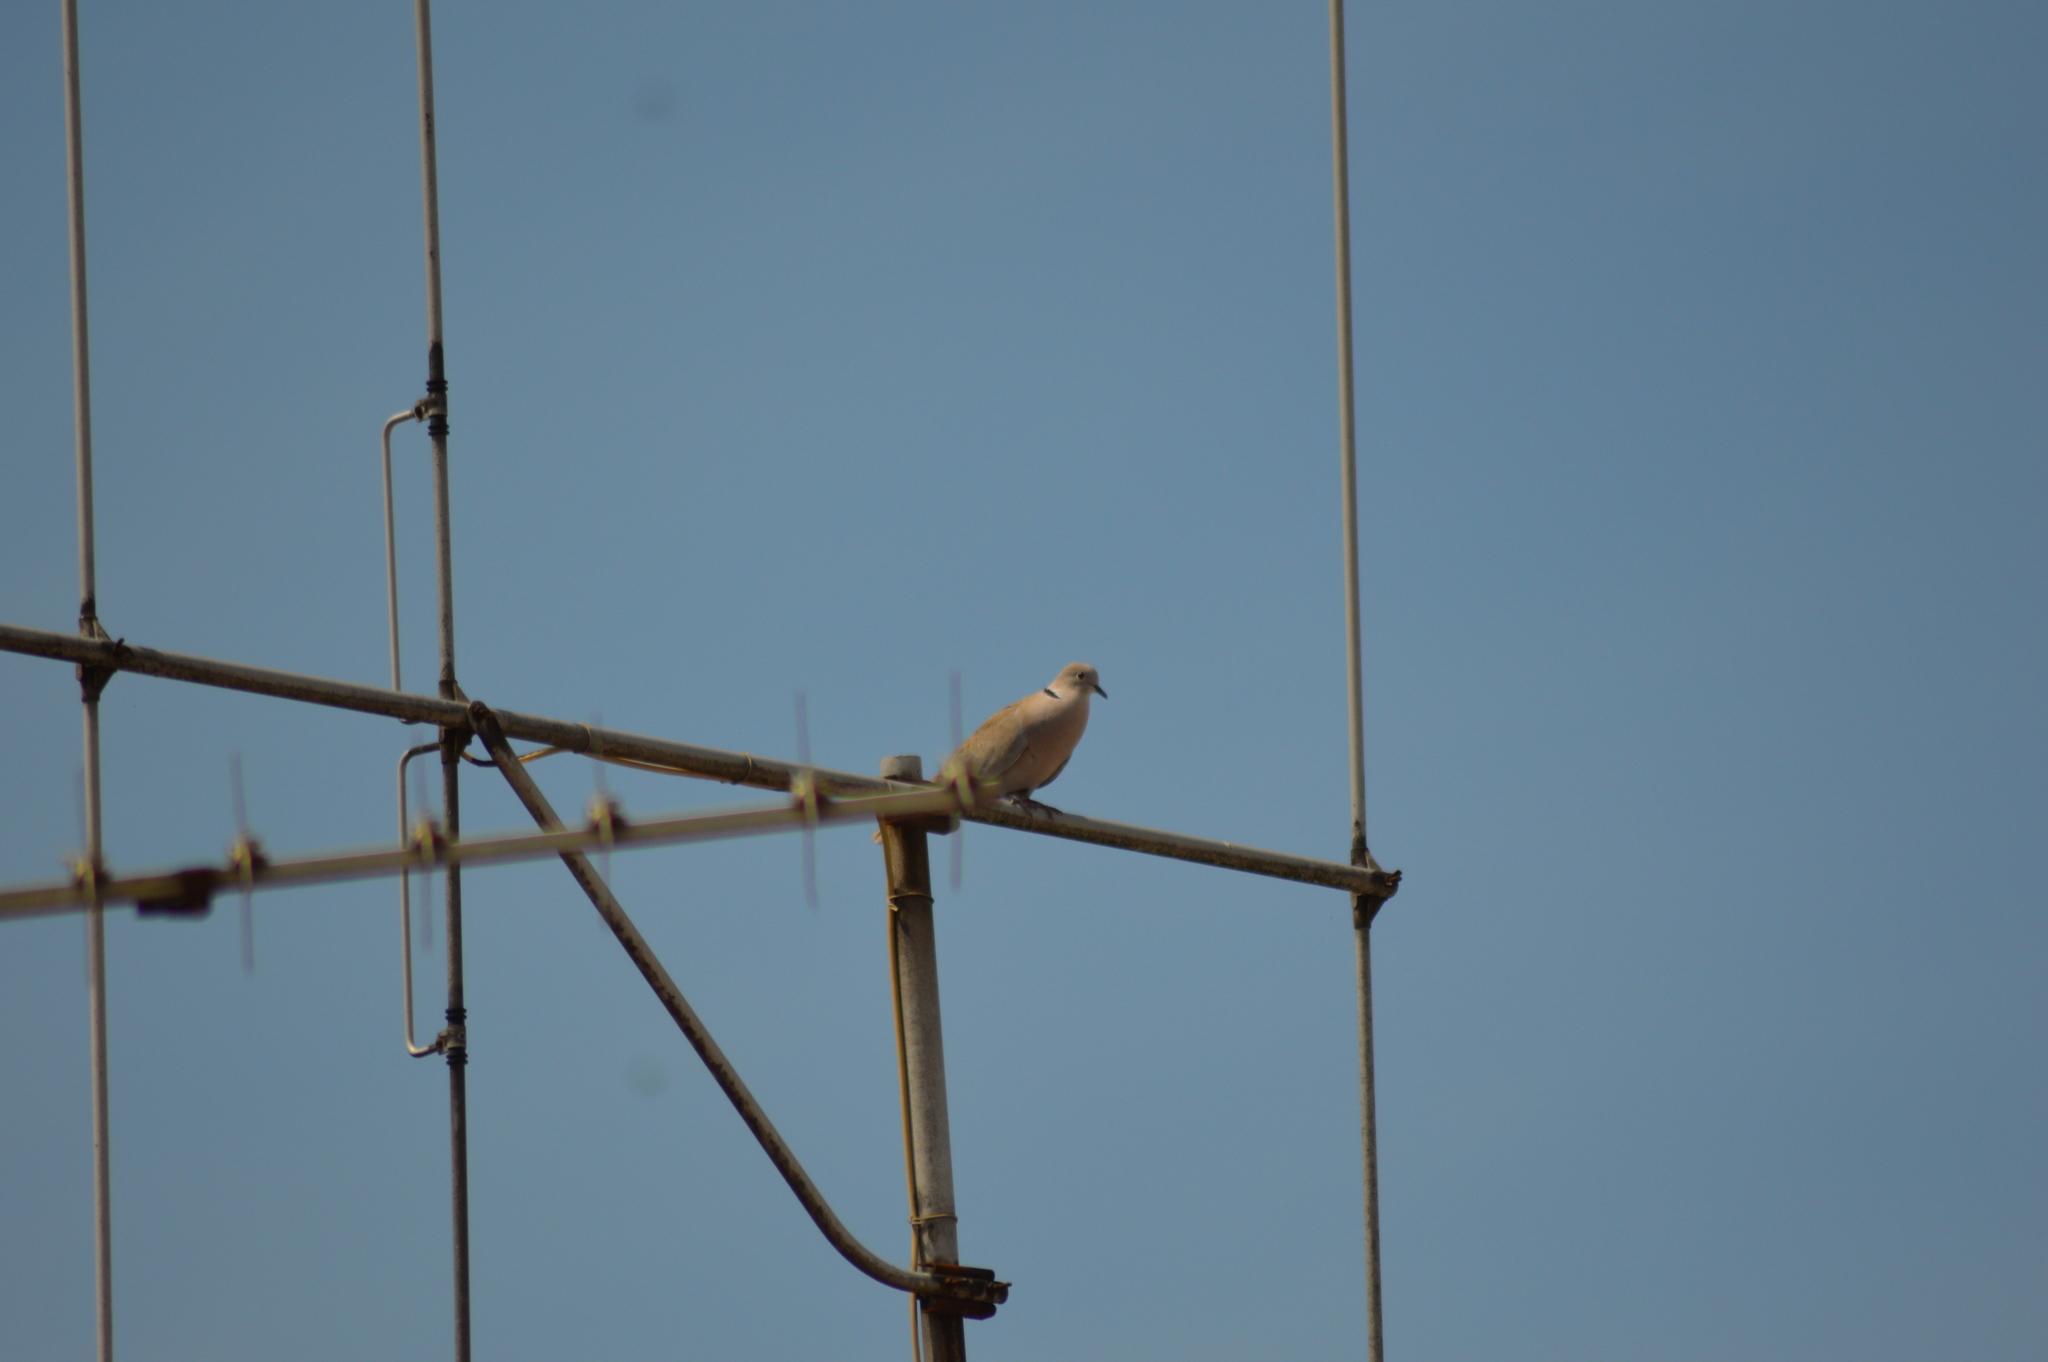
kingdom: Animalia
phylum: Chordata
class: Aves
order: Columbiformes
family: Columbidae
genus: Streptopelia
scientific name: Streptopelia decaocto
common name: Eurasian collared dove
